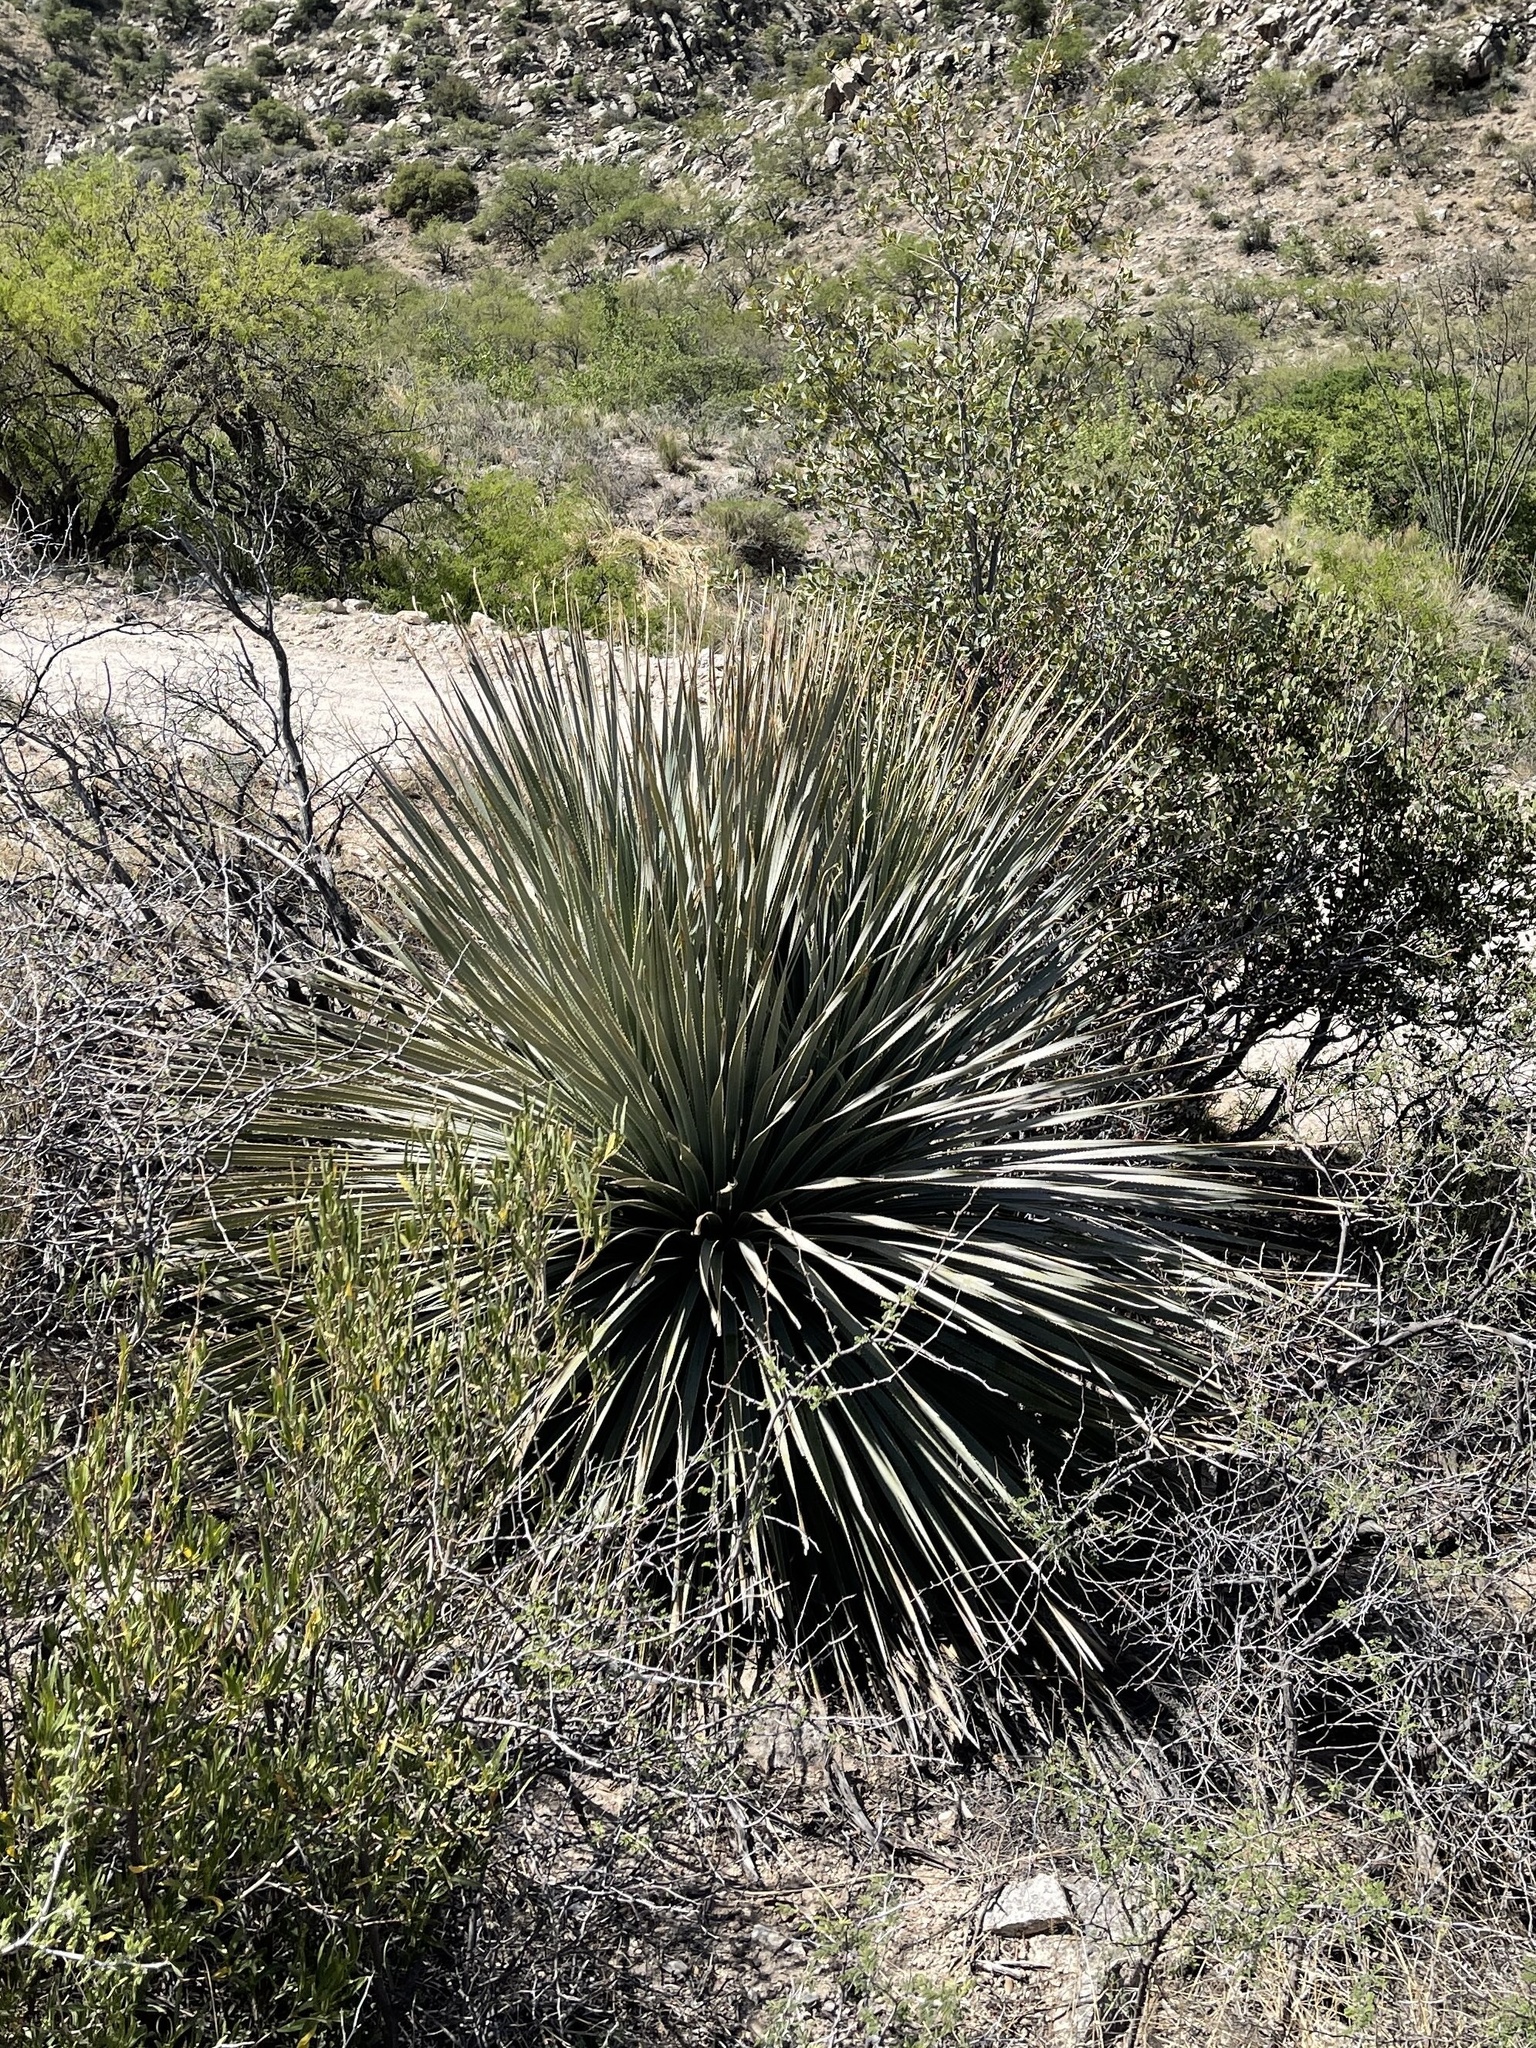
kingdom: Plantae
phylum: Tracheophyta
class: Liliopsida
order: Asparagales
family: Asparagaceae
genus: Dasylirion
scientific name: Dasylirion wheeleri
